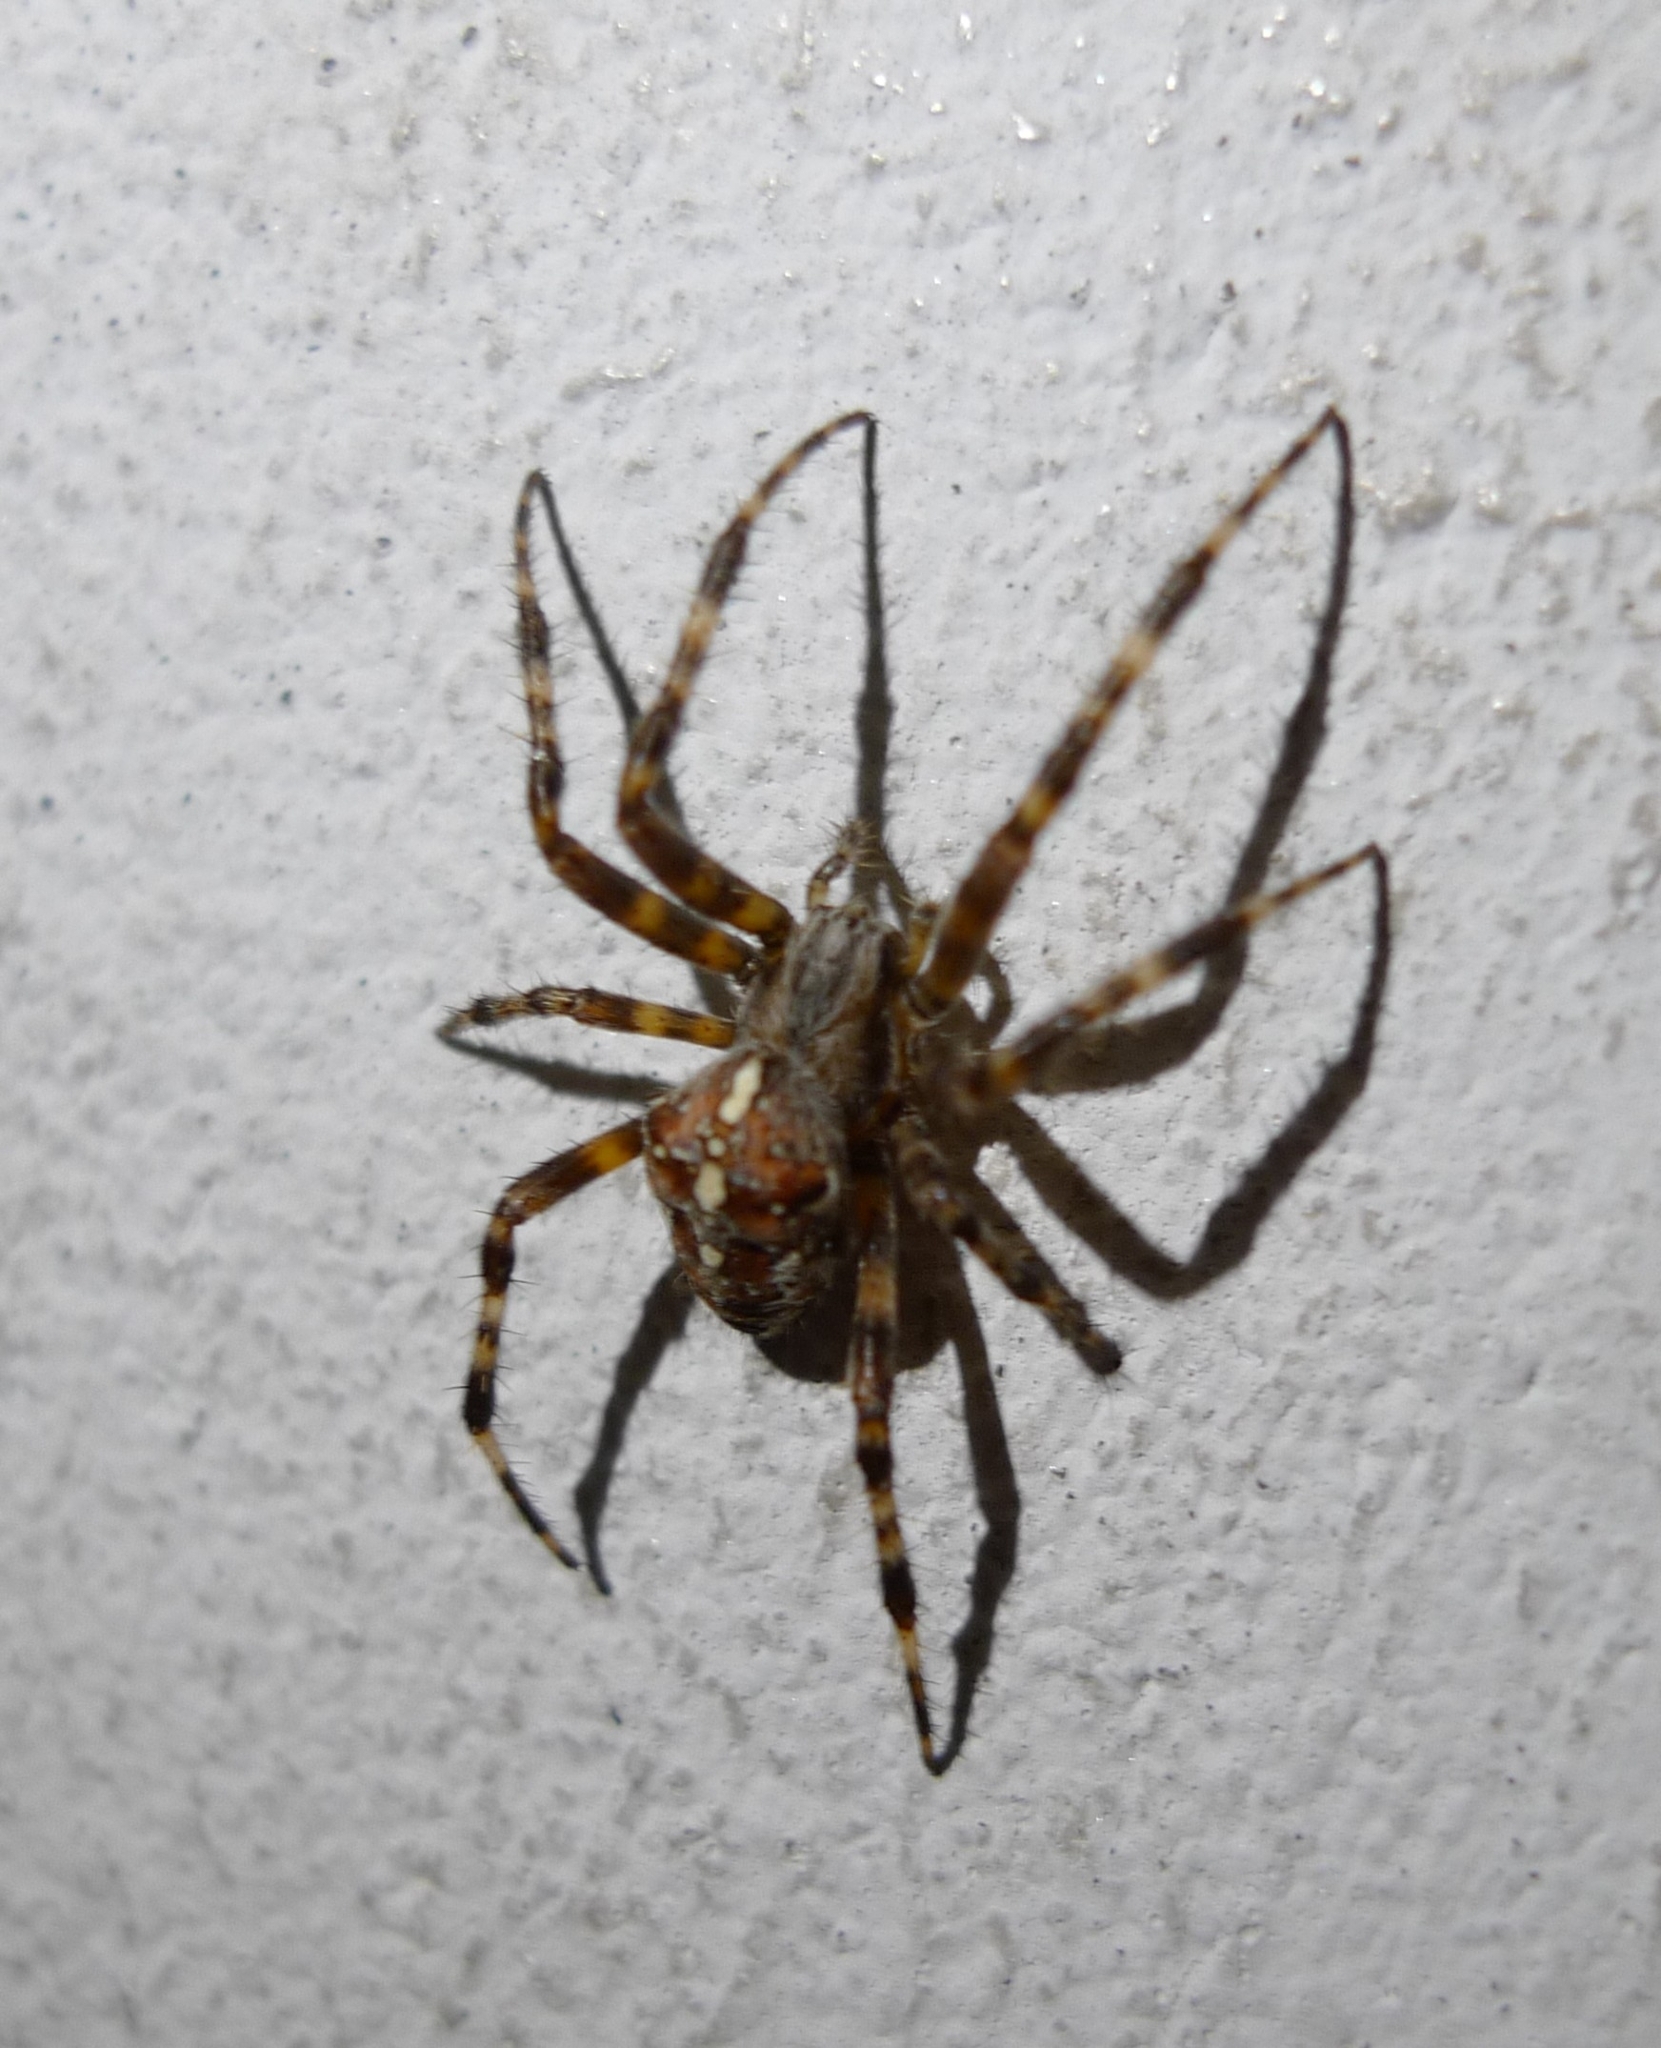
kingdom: Animalia
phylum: Arthropoda
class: Arachnida
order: Araneae
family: Araneidae
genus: Araneus
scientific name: Araneus diadematus
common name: Cross orbweaver
